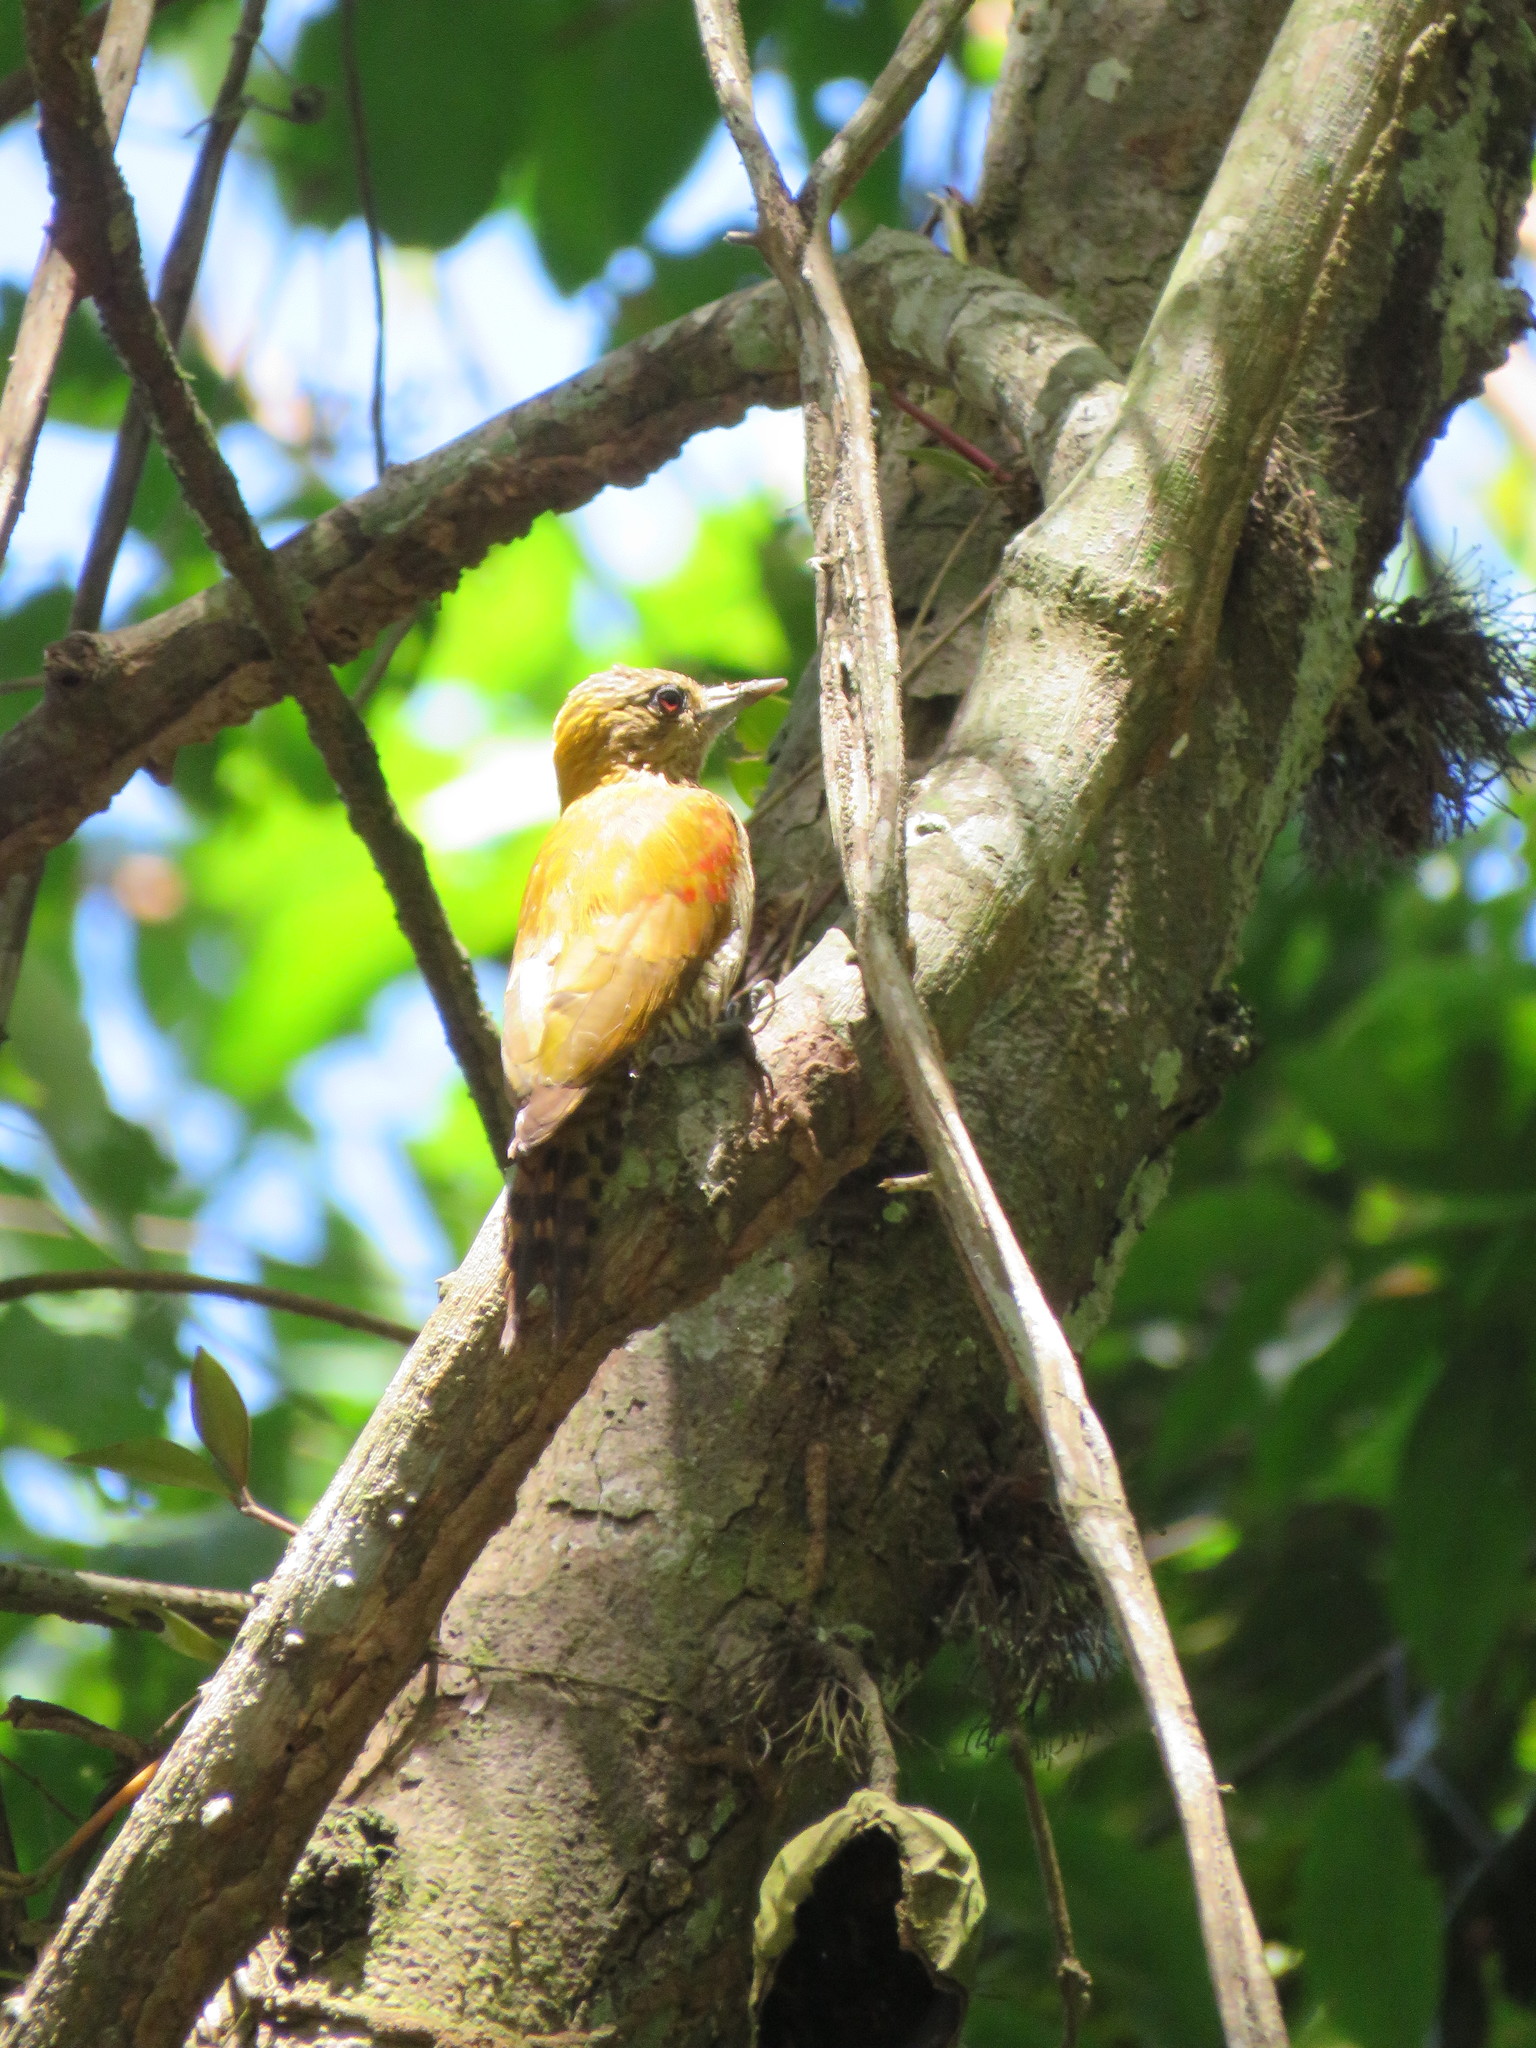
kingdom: Animalia
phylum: Chordata
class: Aves
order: Piciformes
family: Picidae
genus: Veniliornis
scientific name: Veniliornis affinis
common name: Red-stained woodpecker
